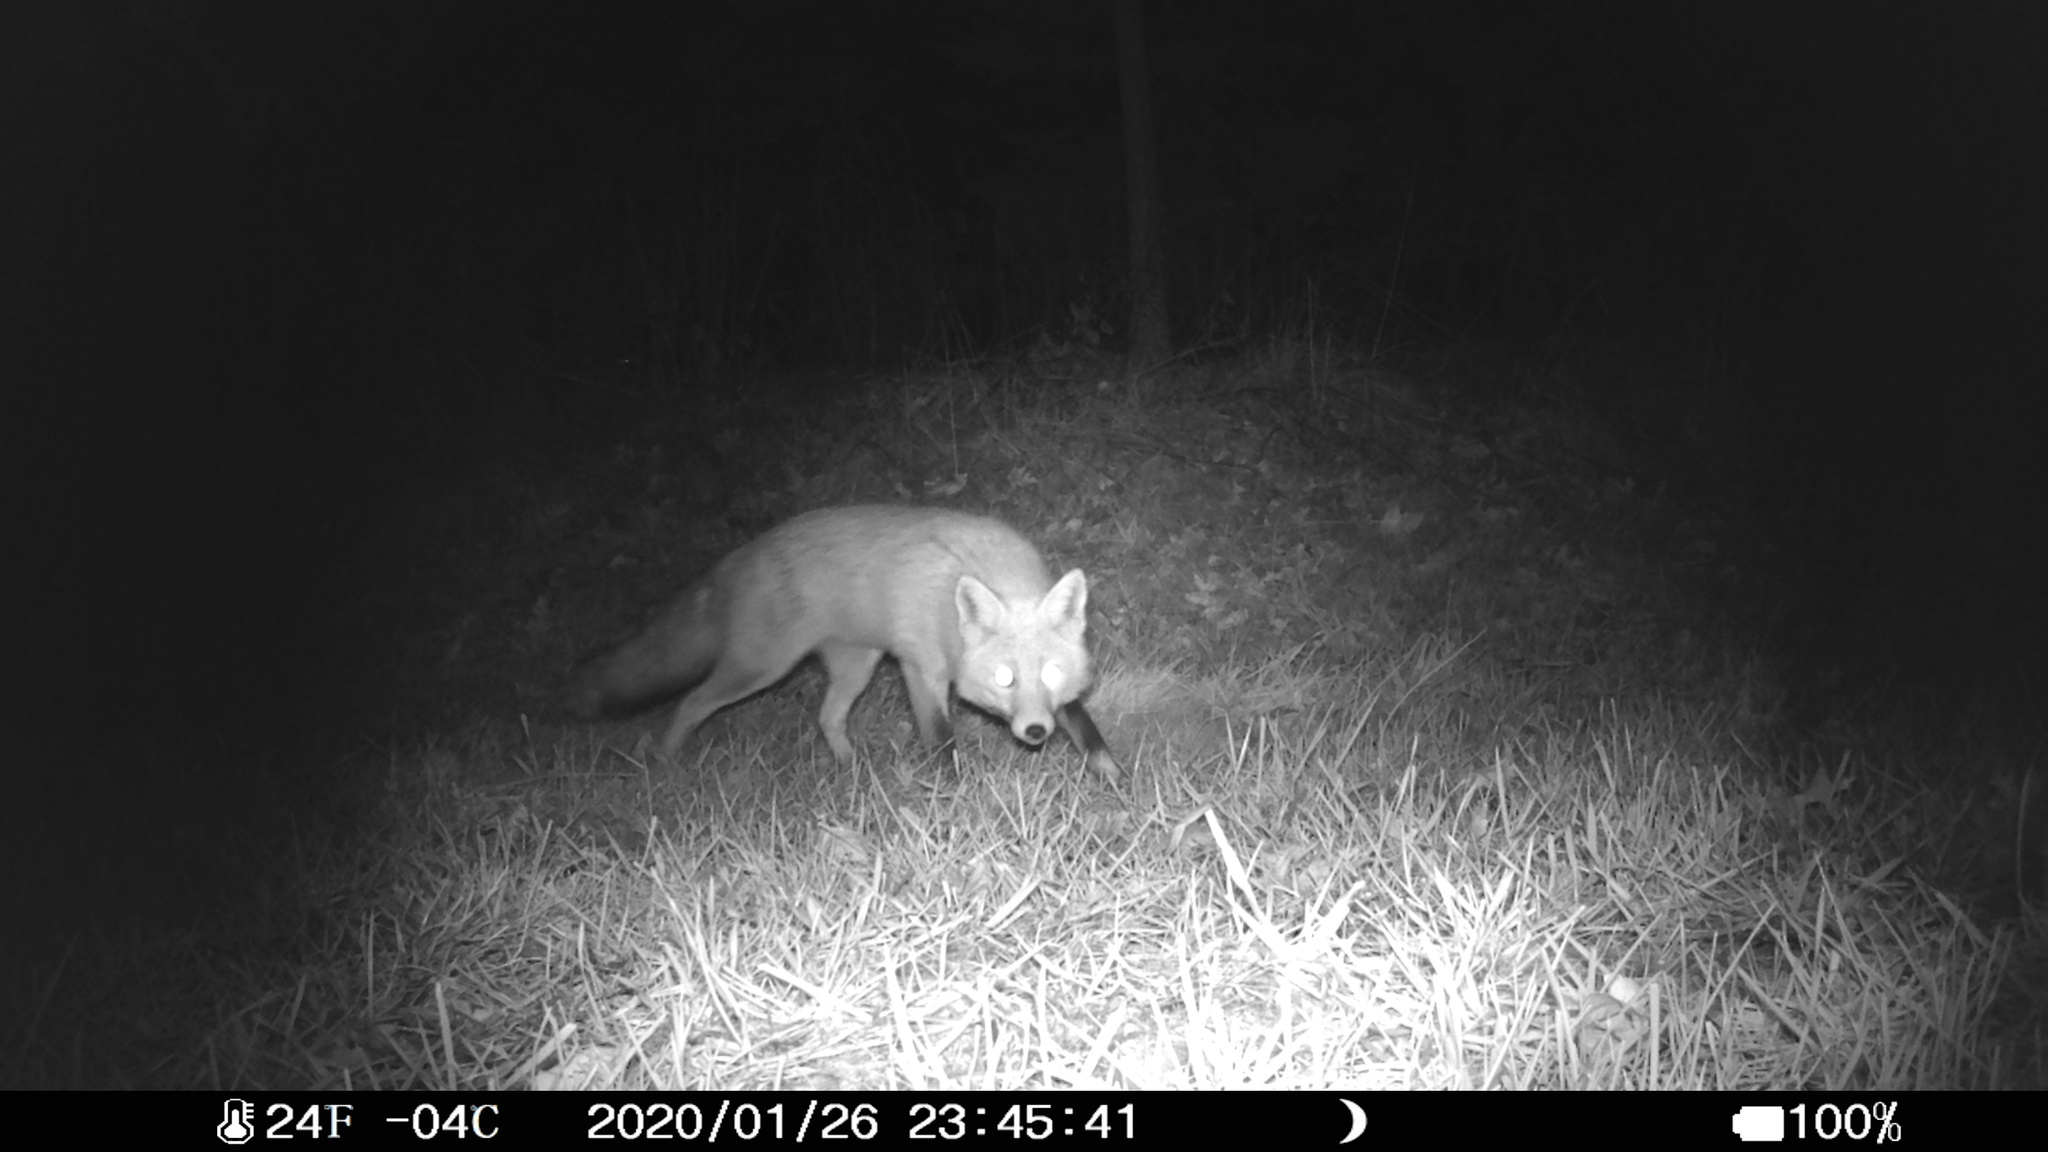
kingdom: Animalia
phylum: Chordata
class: Mammalia
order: Carnivora
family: Canidae
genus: Vulpes
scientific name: Vulpes vulpes
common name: Red fox
